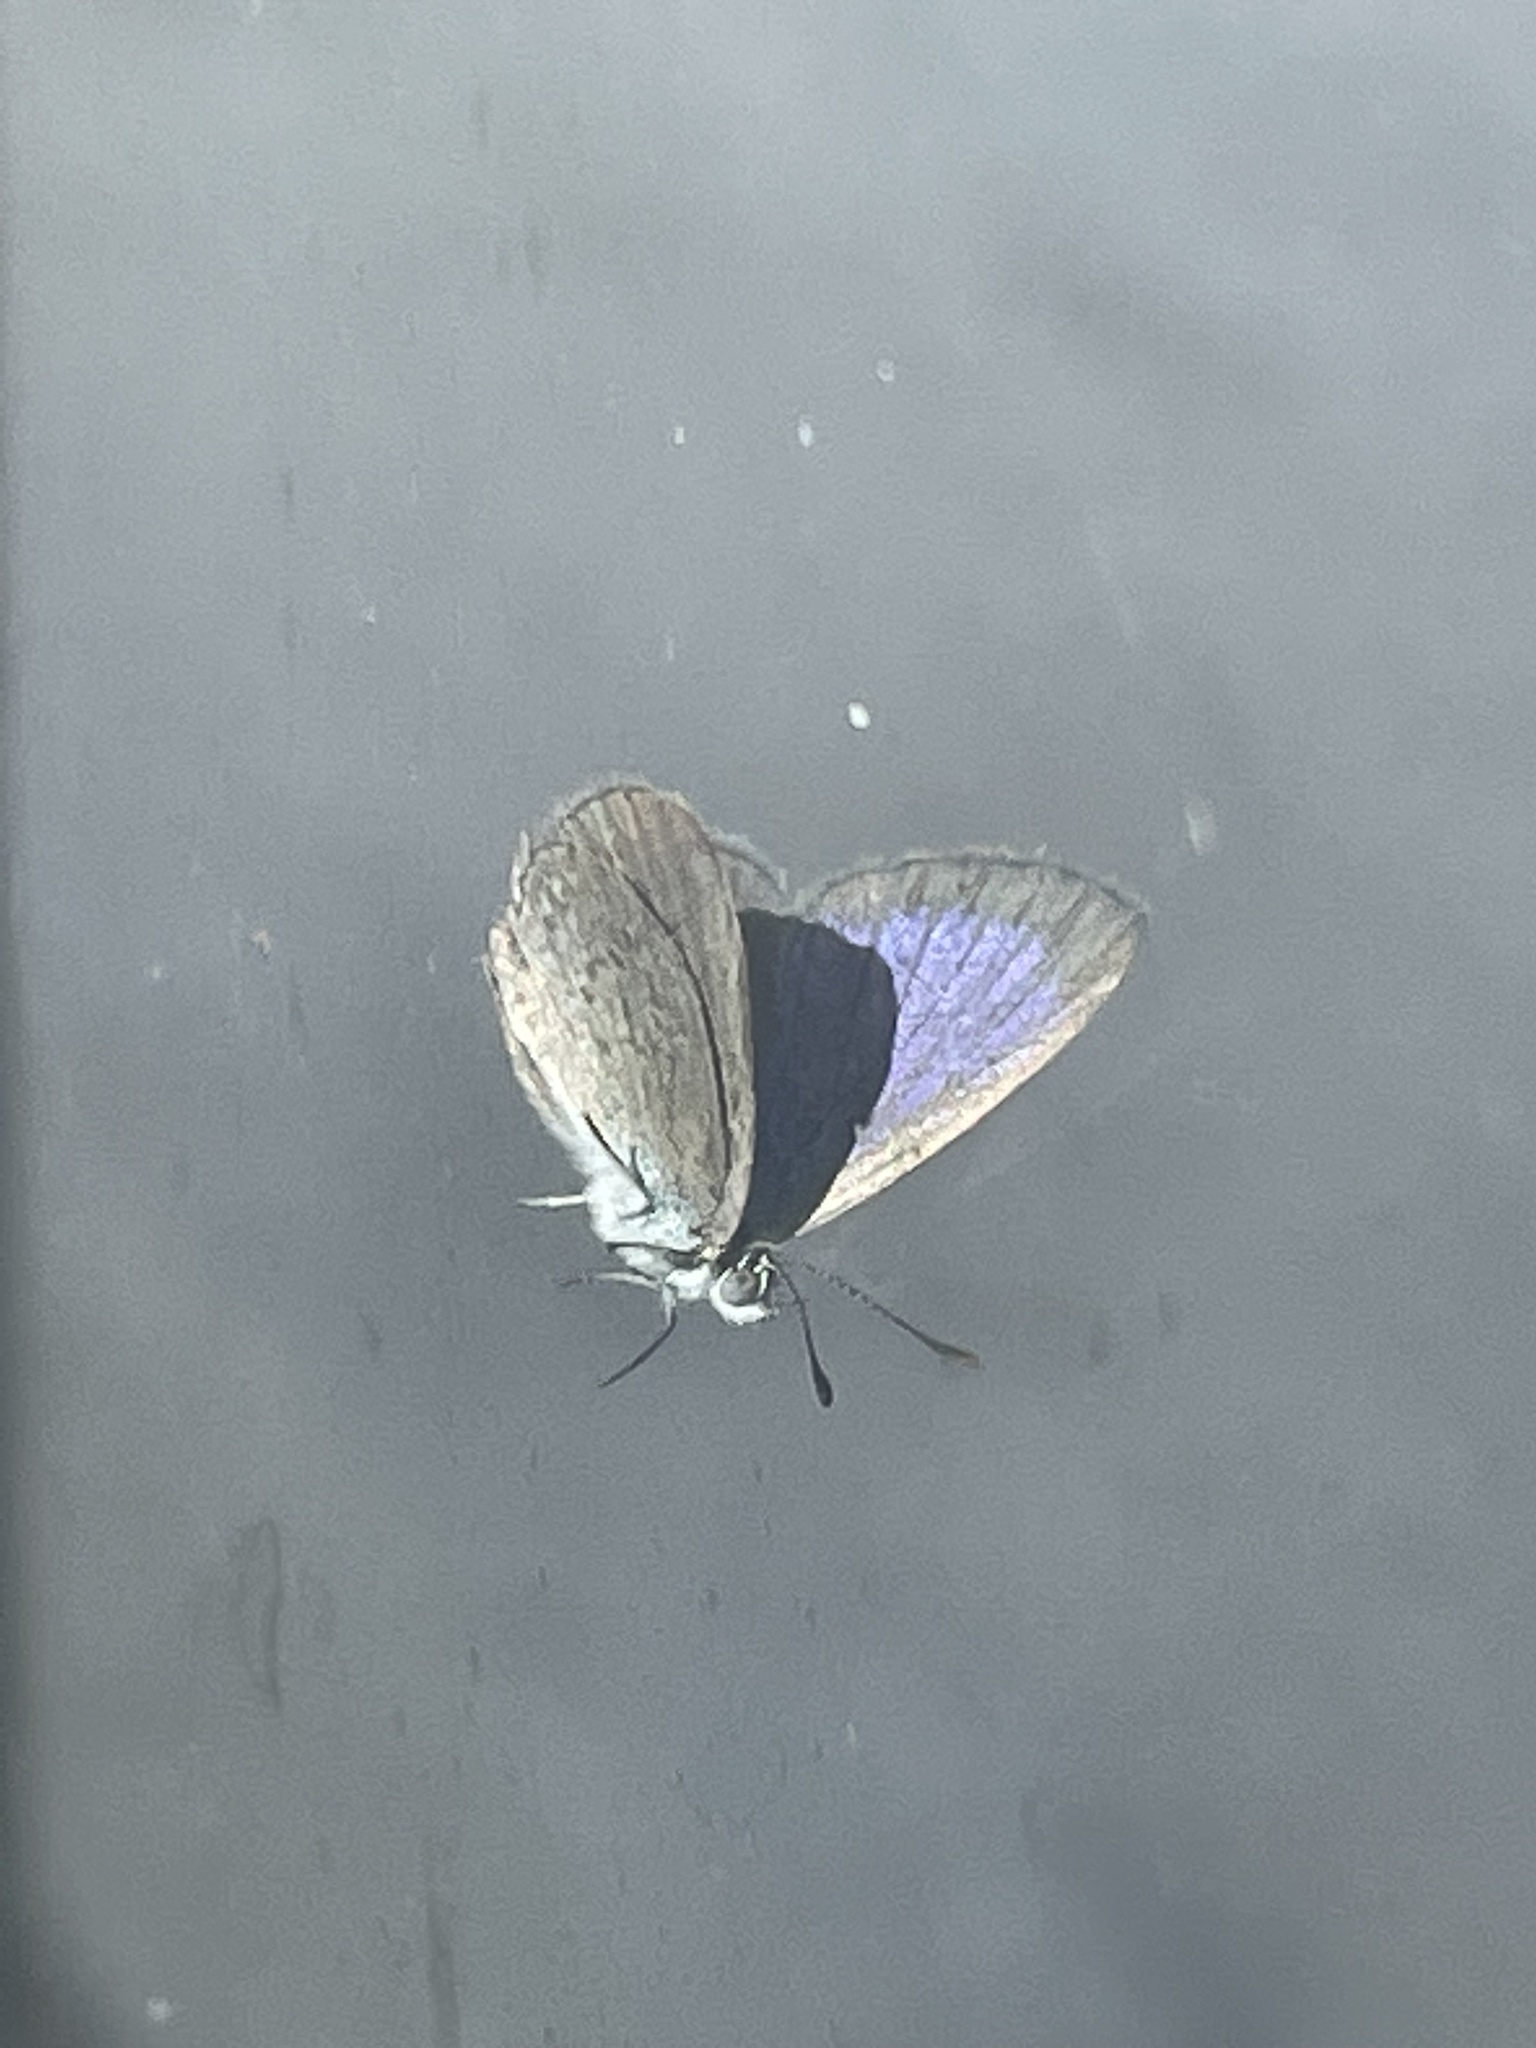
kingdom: Animalia
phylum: Arthropoda
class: Insecta
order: Lepidoptera
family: Lycaenidae
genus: Zizina
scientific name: Zizina otis
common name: Lesser grass blue
